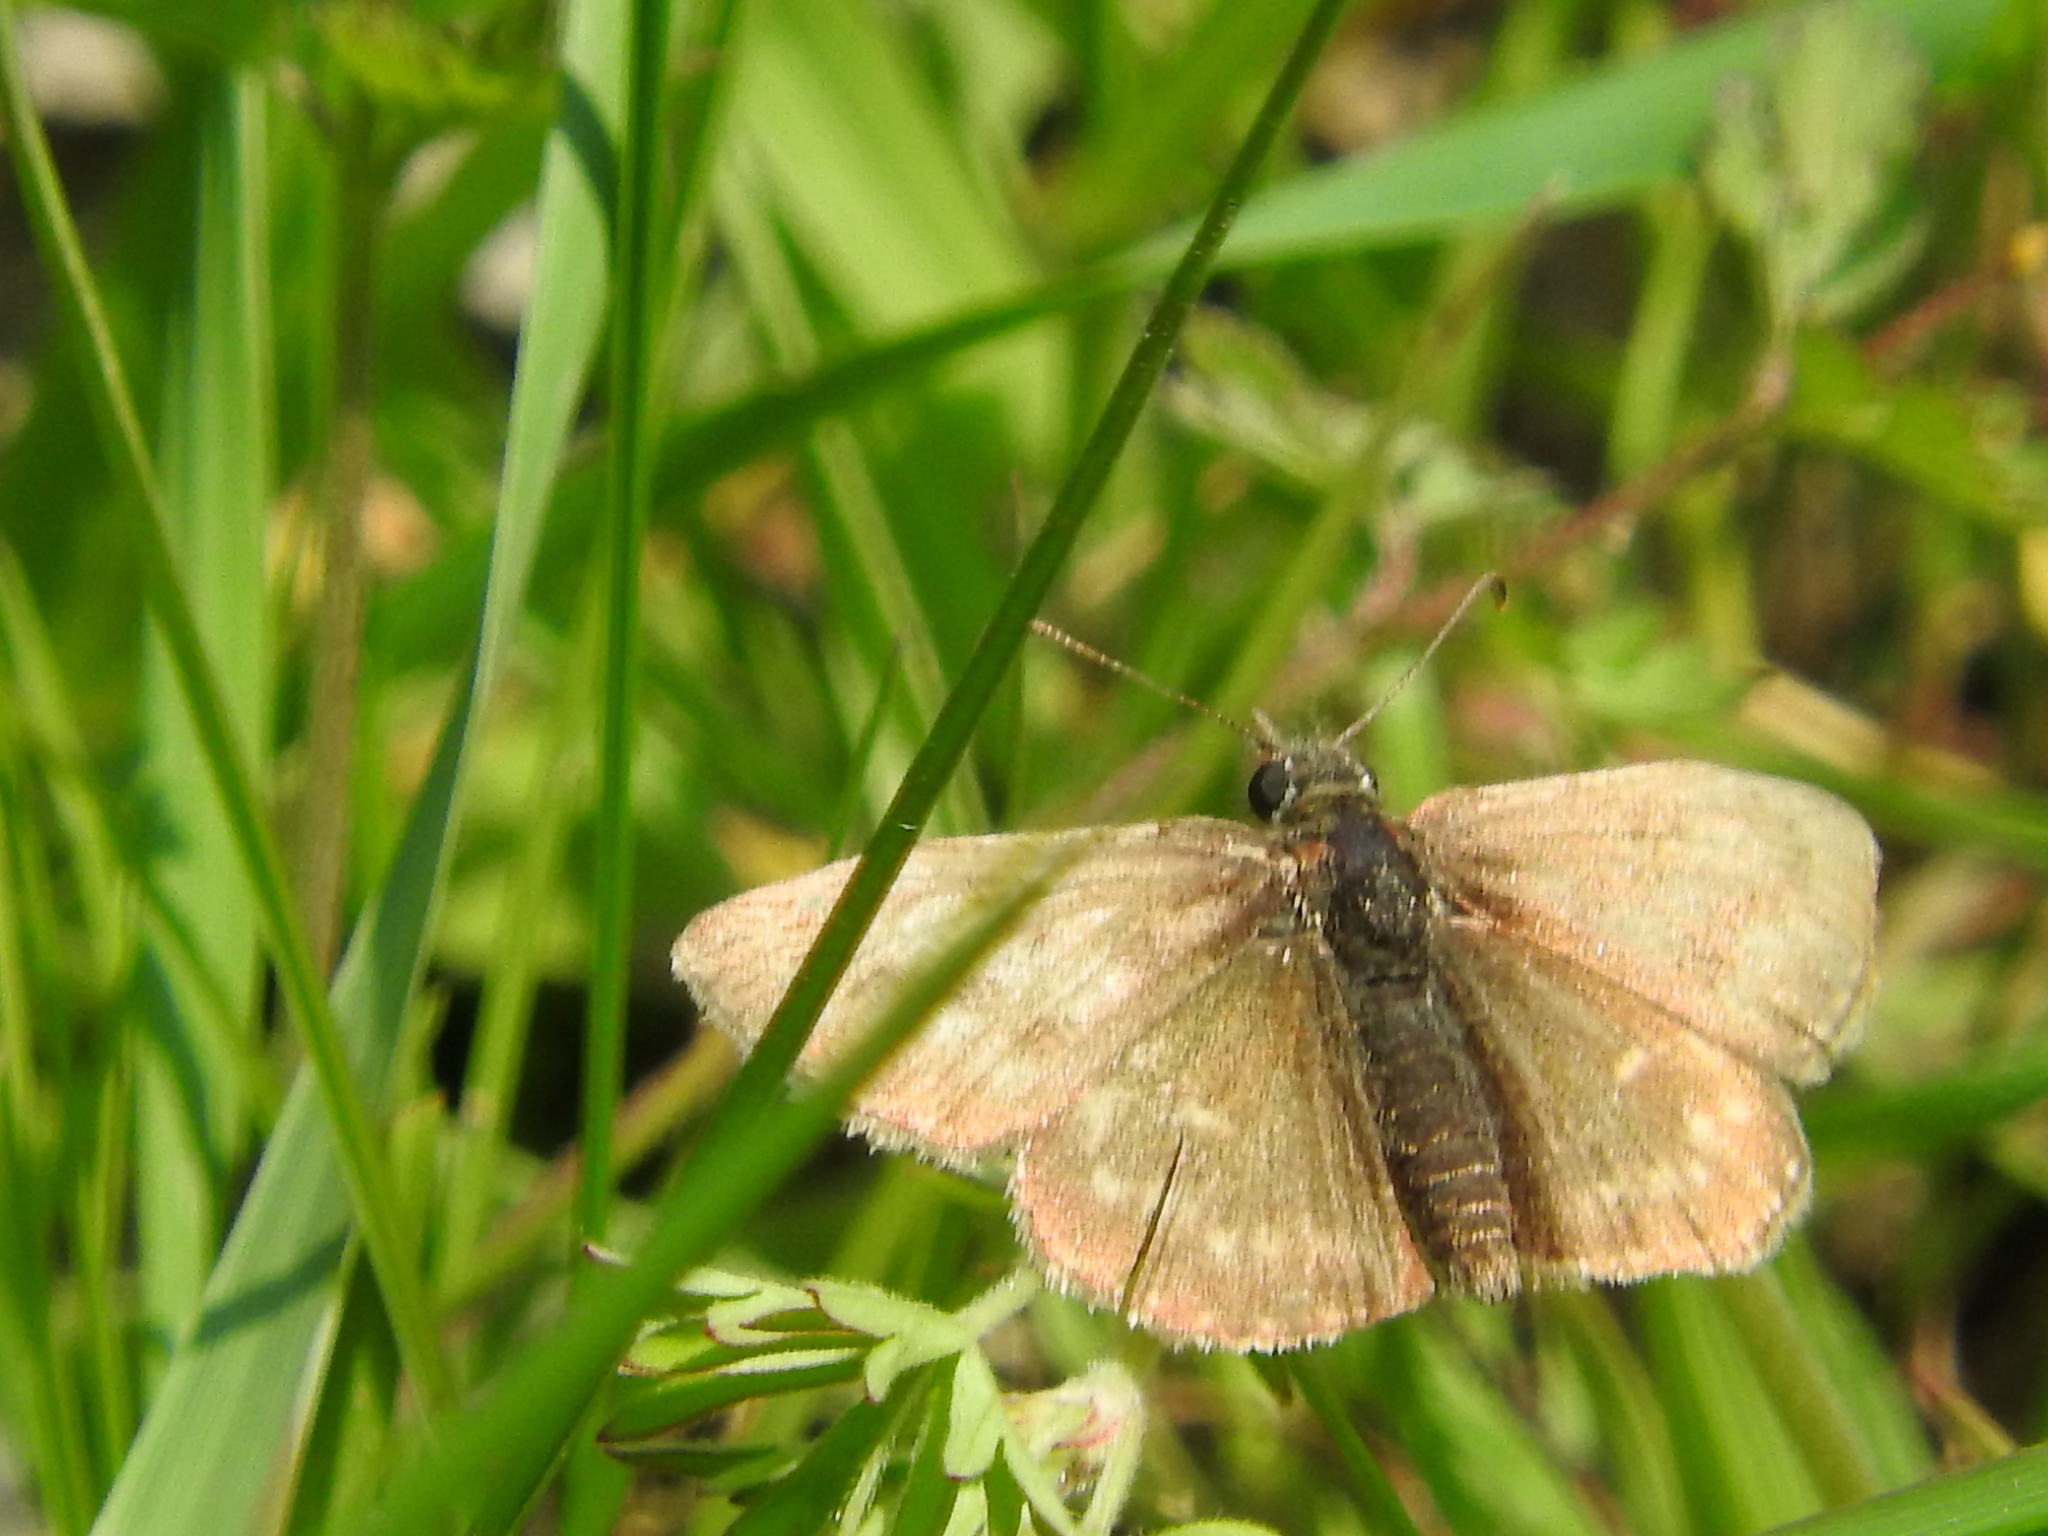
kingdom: Animalia
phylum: Arthropoda
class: Insecta
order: Lepidoptera
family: Hesperiidae
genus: Erynnis
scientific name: Erynnis tages
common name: Dingy skipper
